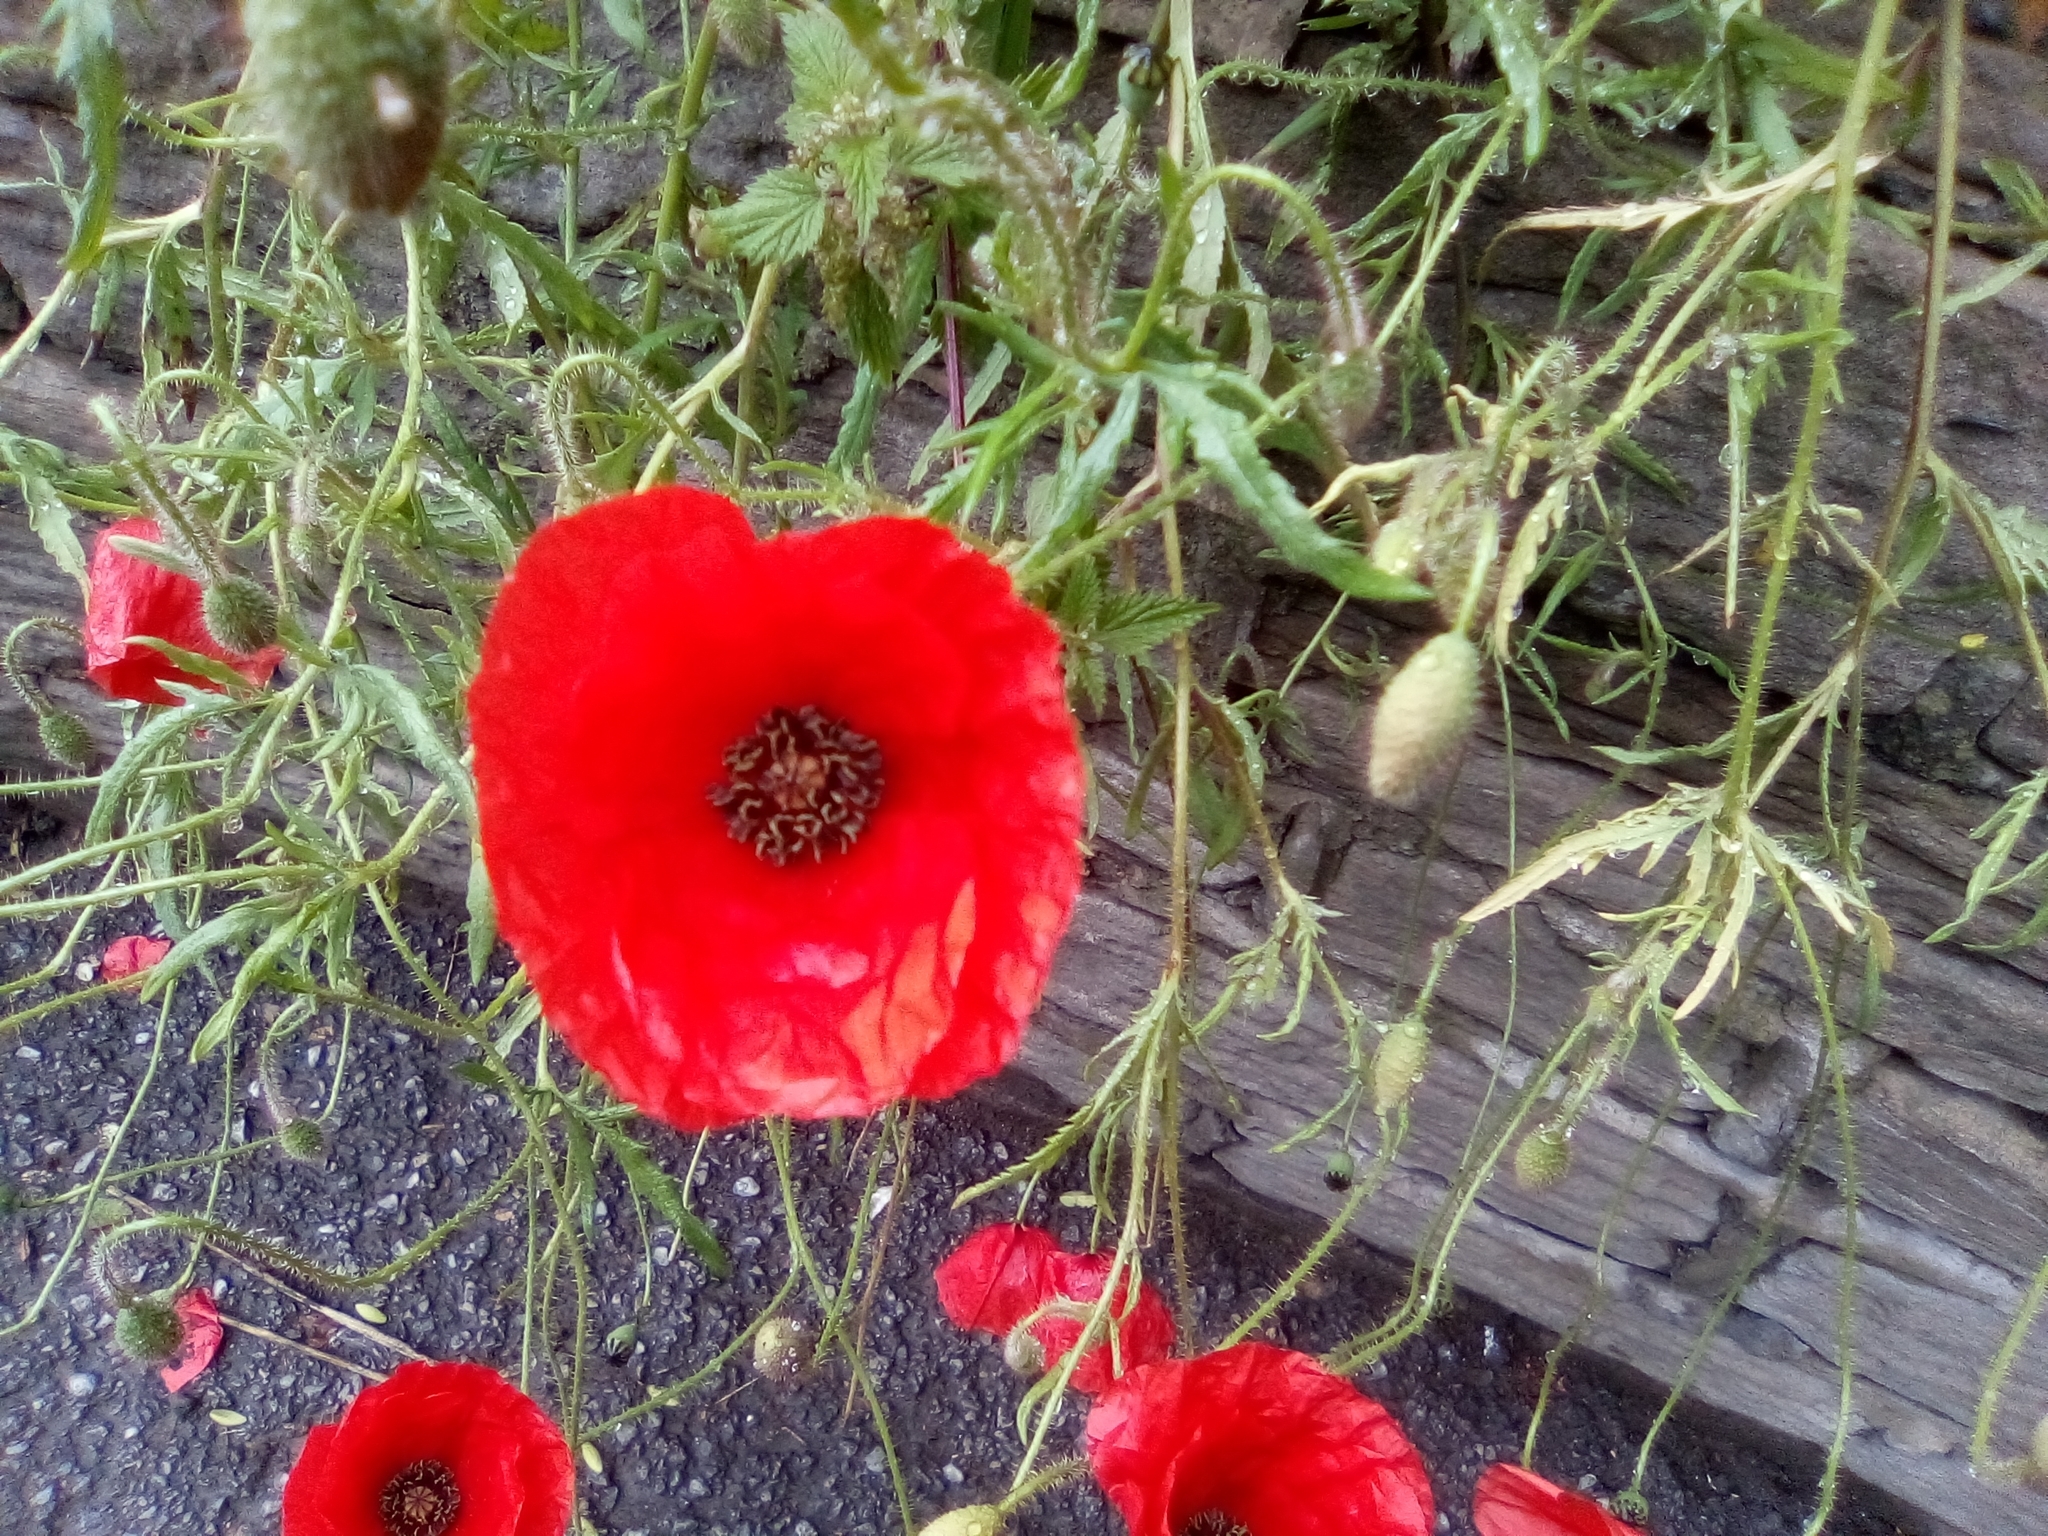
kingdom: Plantae
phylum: Tracheophyta
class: Magnoliopsida
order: Ranunculales
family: Papaveraceae
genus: Papaver
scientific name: Papaver rhoeas
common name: Corn poppy
